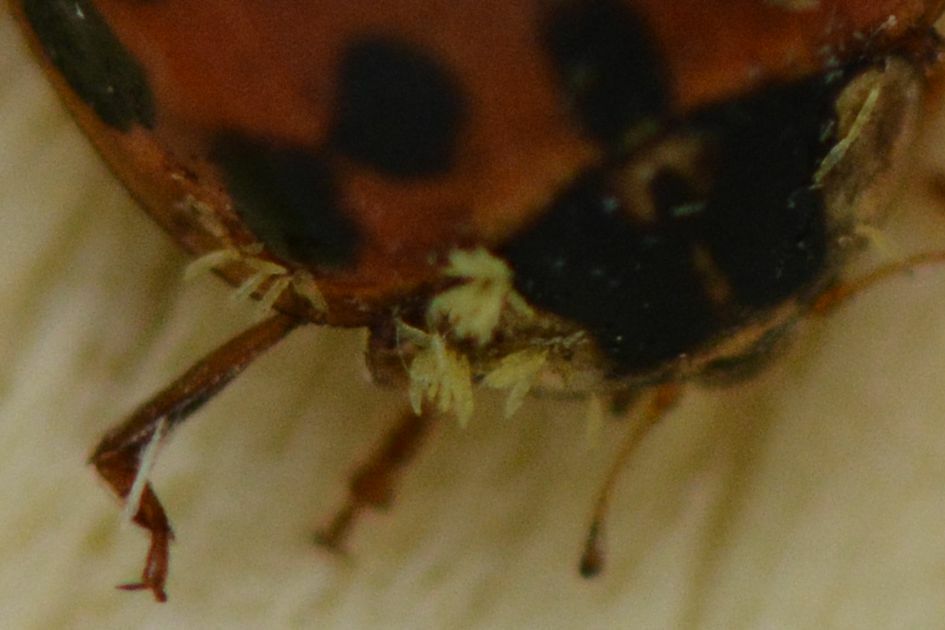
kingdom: Fungi
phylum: Ascomycota
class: Laboulbeniomycetes
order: Laboulbeniales
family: Laboulbeniaceae
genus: Hesperomyces
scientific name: Hesperomyces harmoniae
